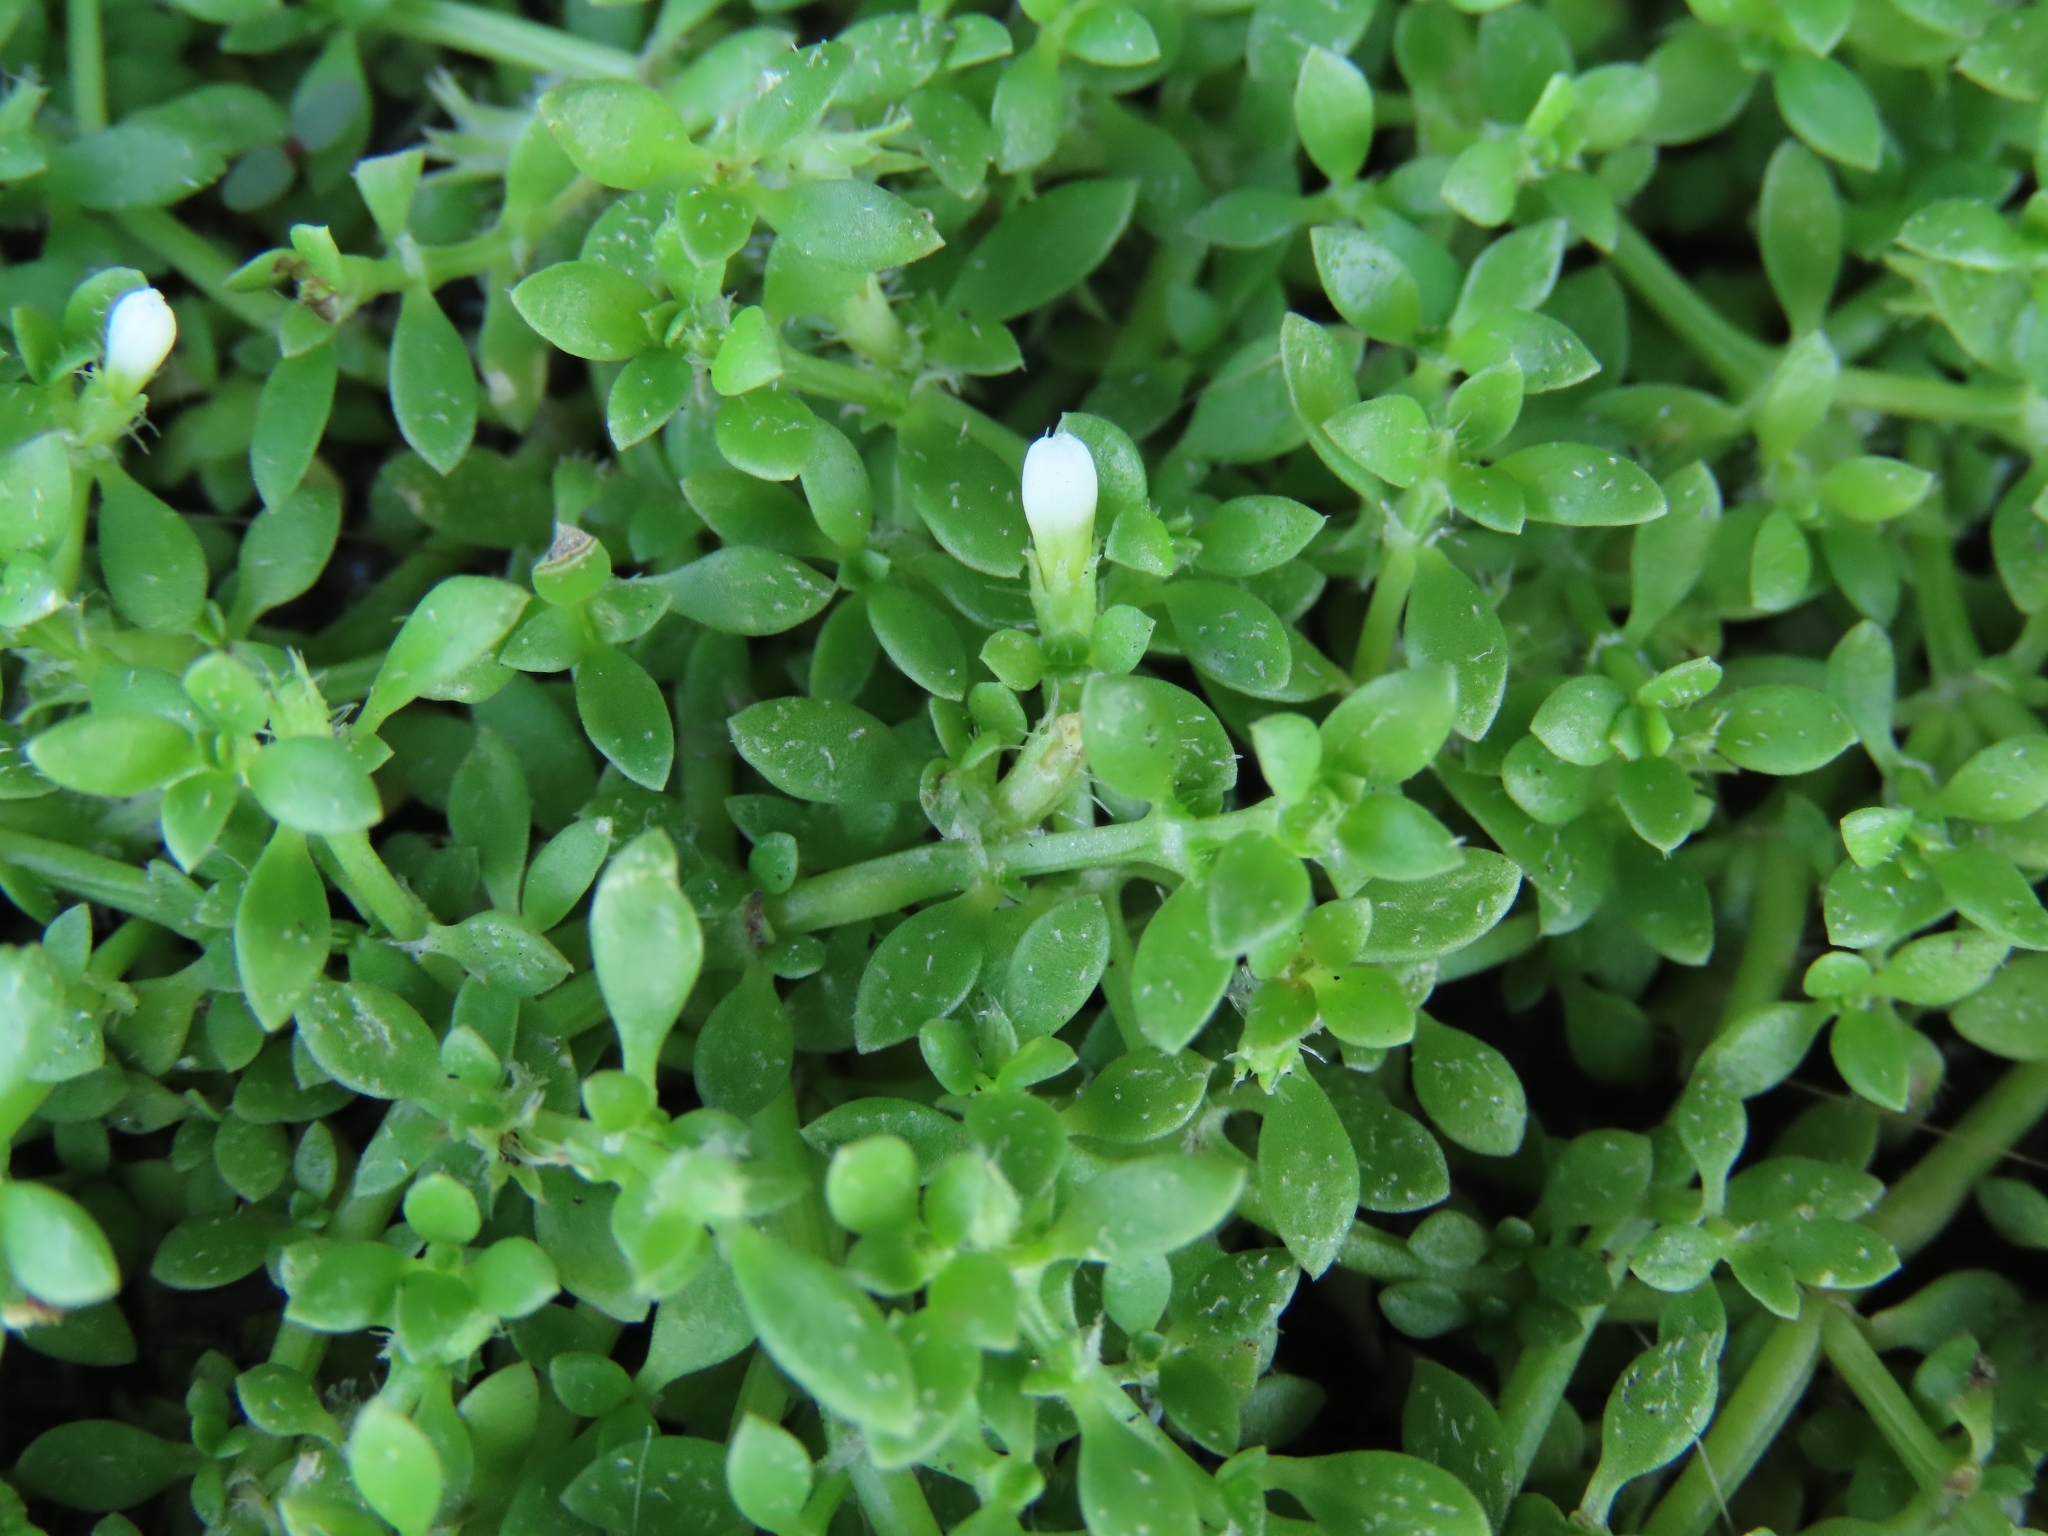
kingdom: Plantae
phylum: Tracheophyta
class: Magnoliopsida
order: Gentianales
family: Rubiaceae
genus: Dentella
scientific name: Dentella repens
